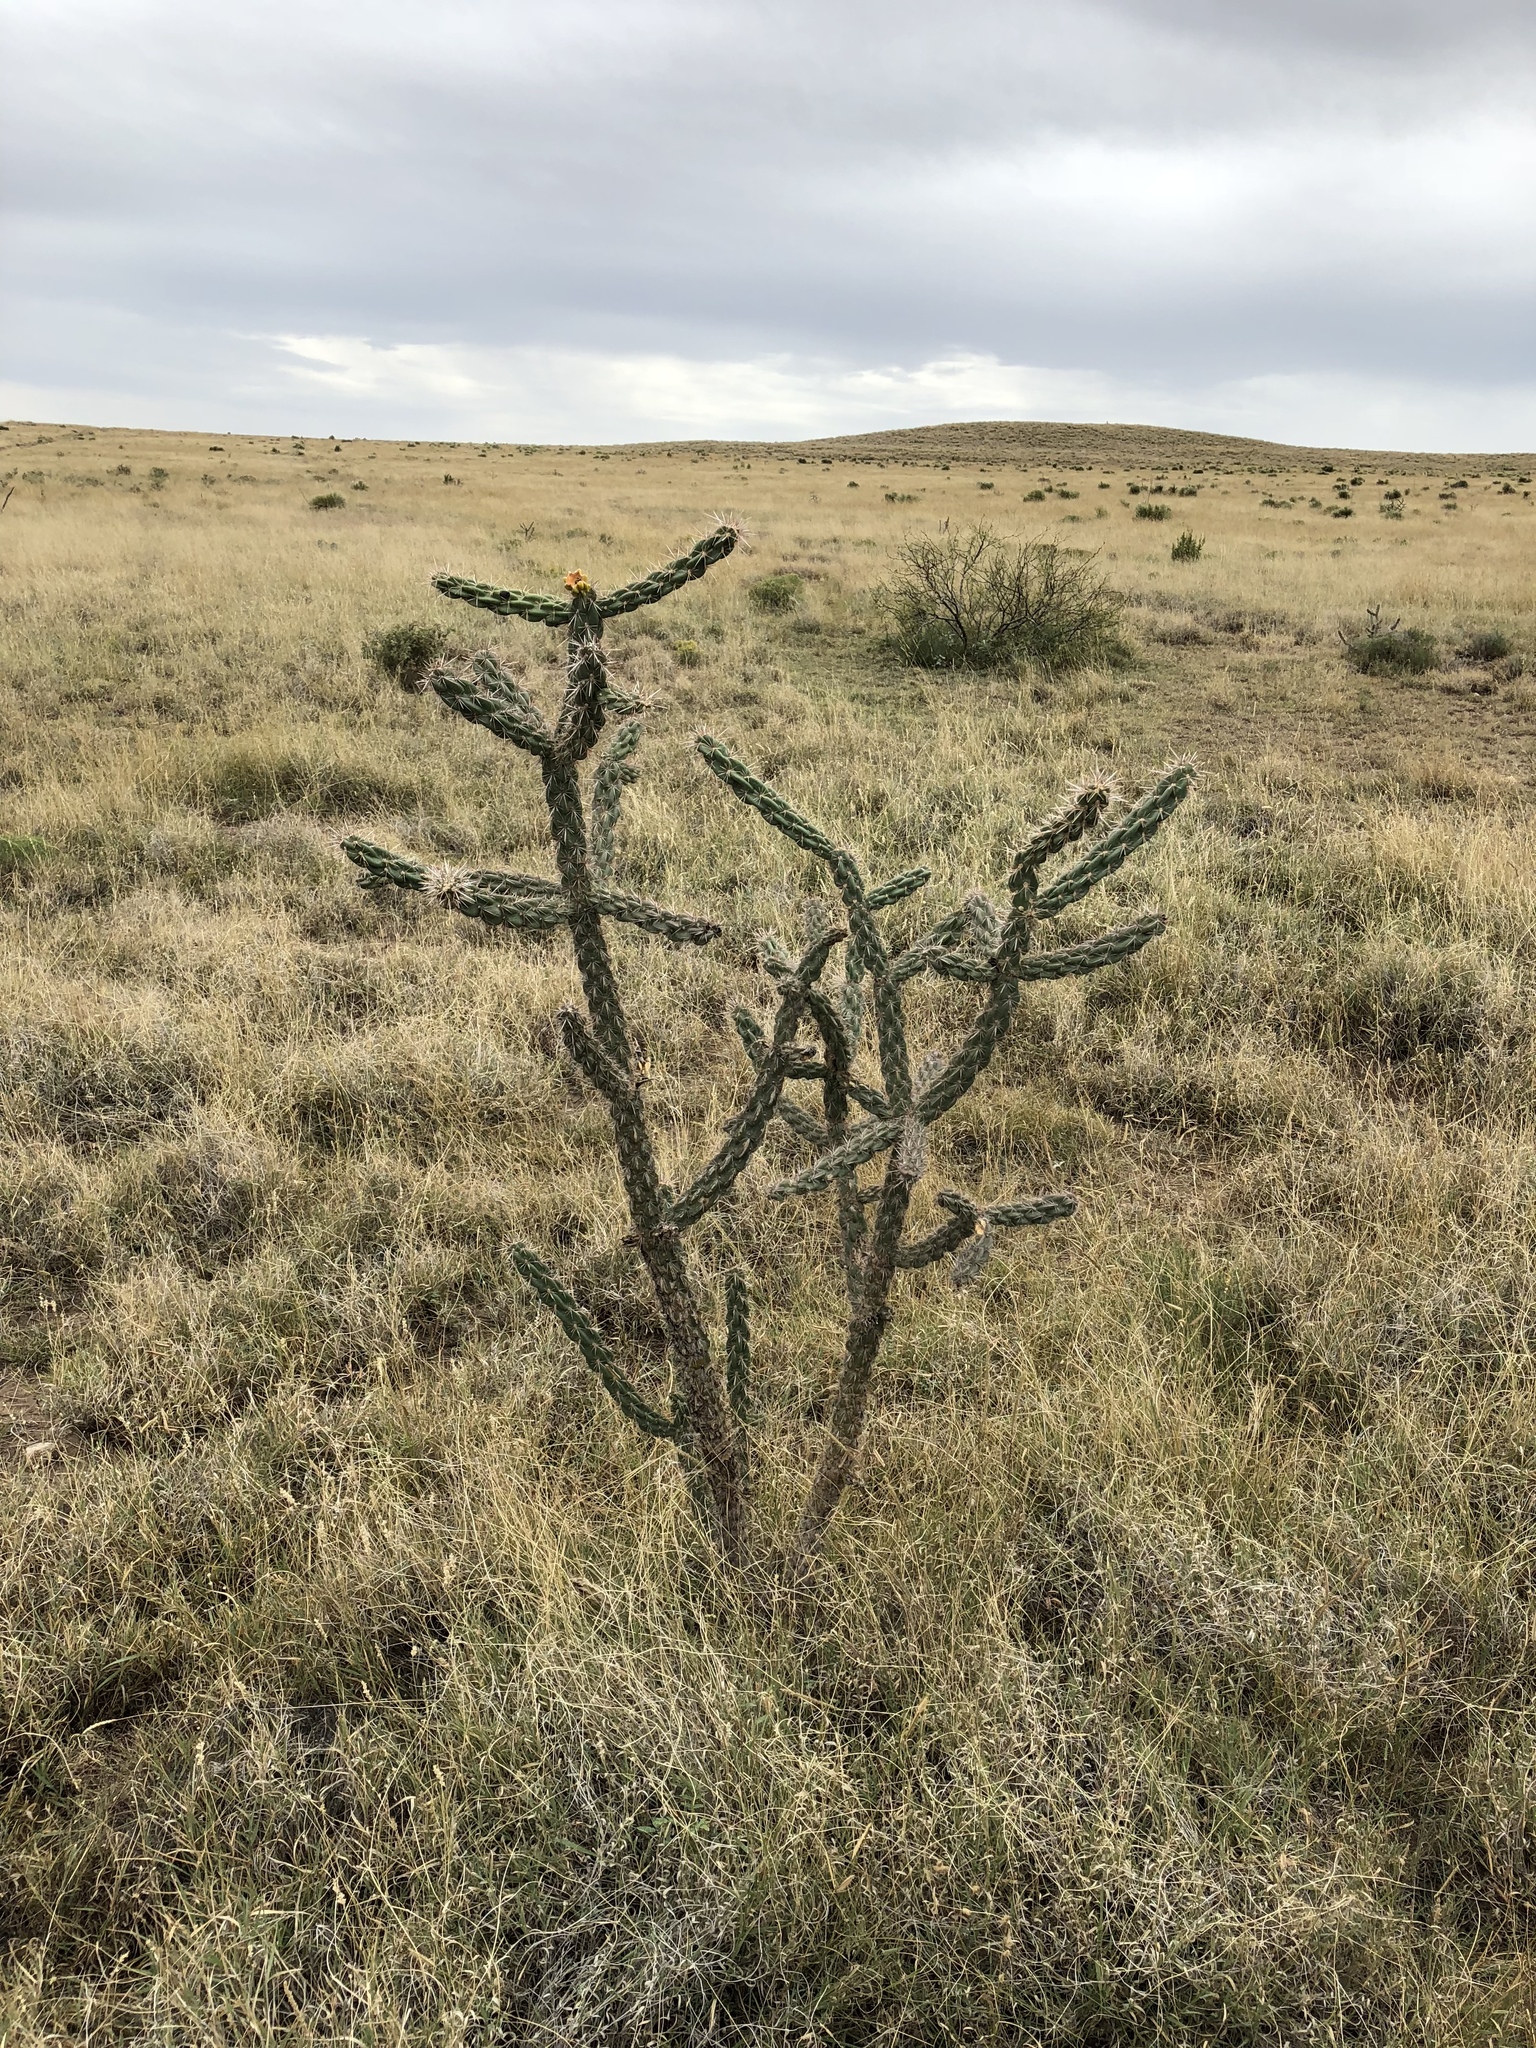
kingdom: Plantae
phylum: Tracheophyta
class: Magnoliopsida
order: Caryophyllales
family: Cactaceae
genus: Cylindropuntia
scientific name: Cylindropuntia imbricata
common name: Candelabrum cactus
